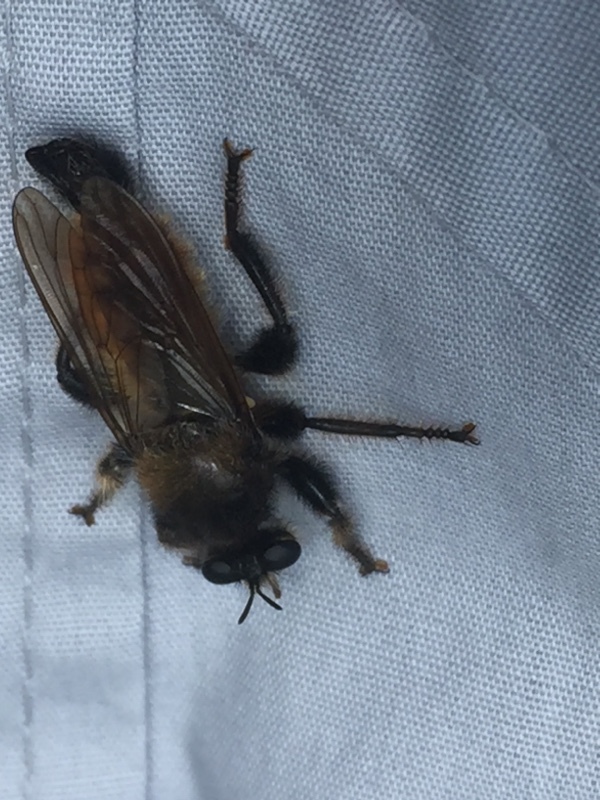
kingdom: Animalia
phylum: Arthropoda
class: Insecta
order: Diptera
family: Asilidae
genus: Laphria
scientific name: Laphria flava
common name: Bumblebee robberfly
